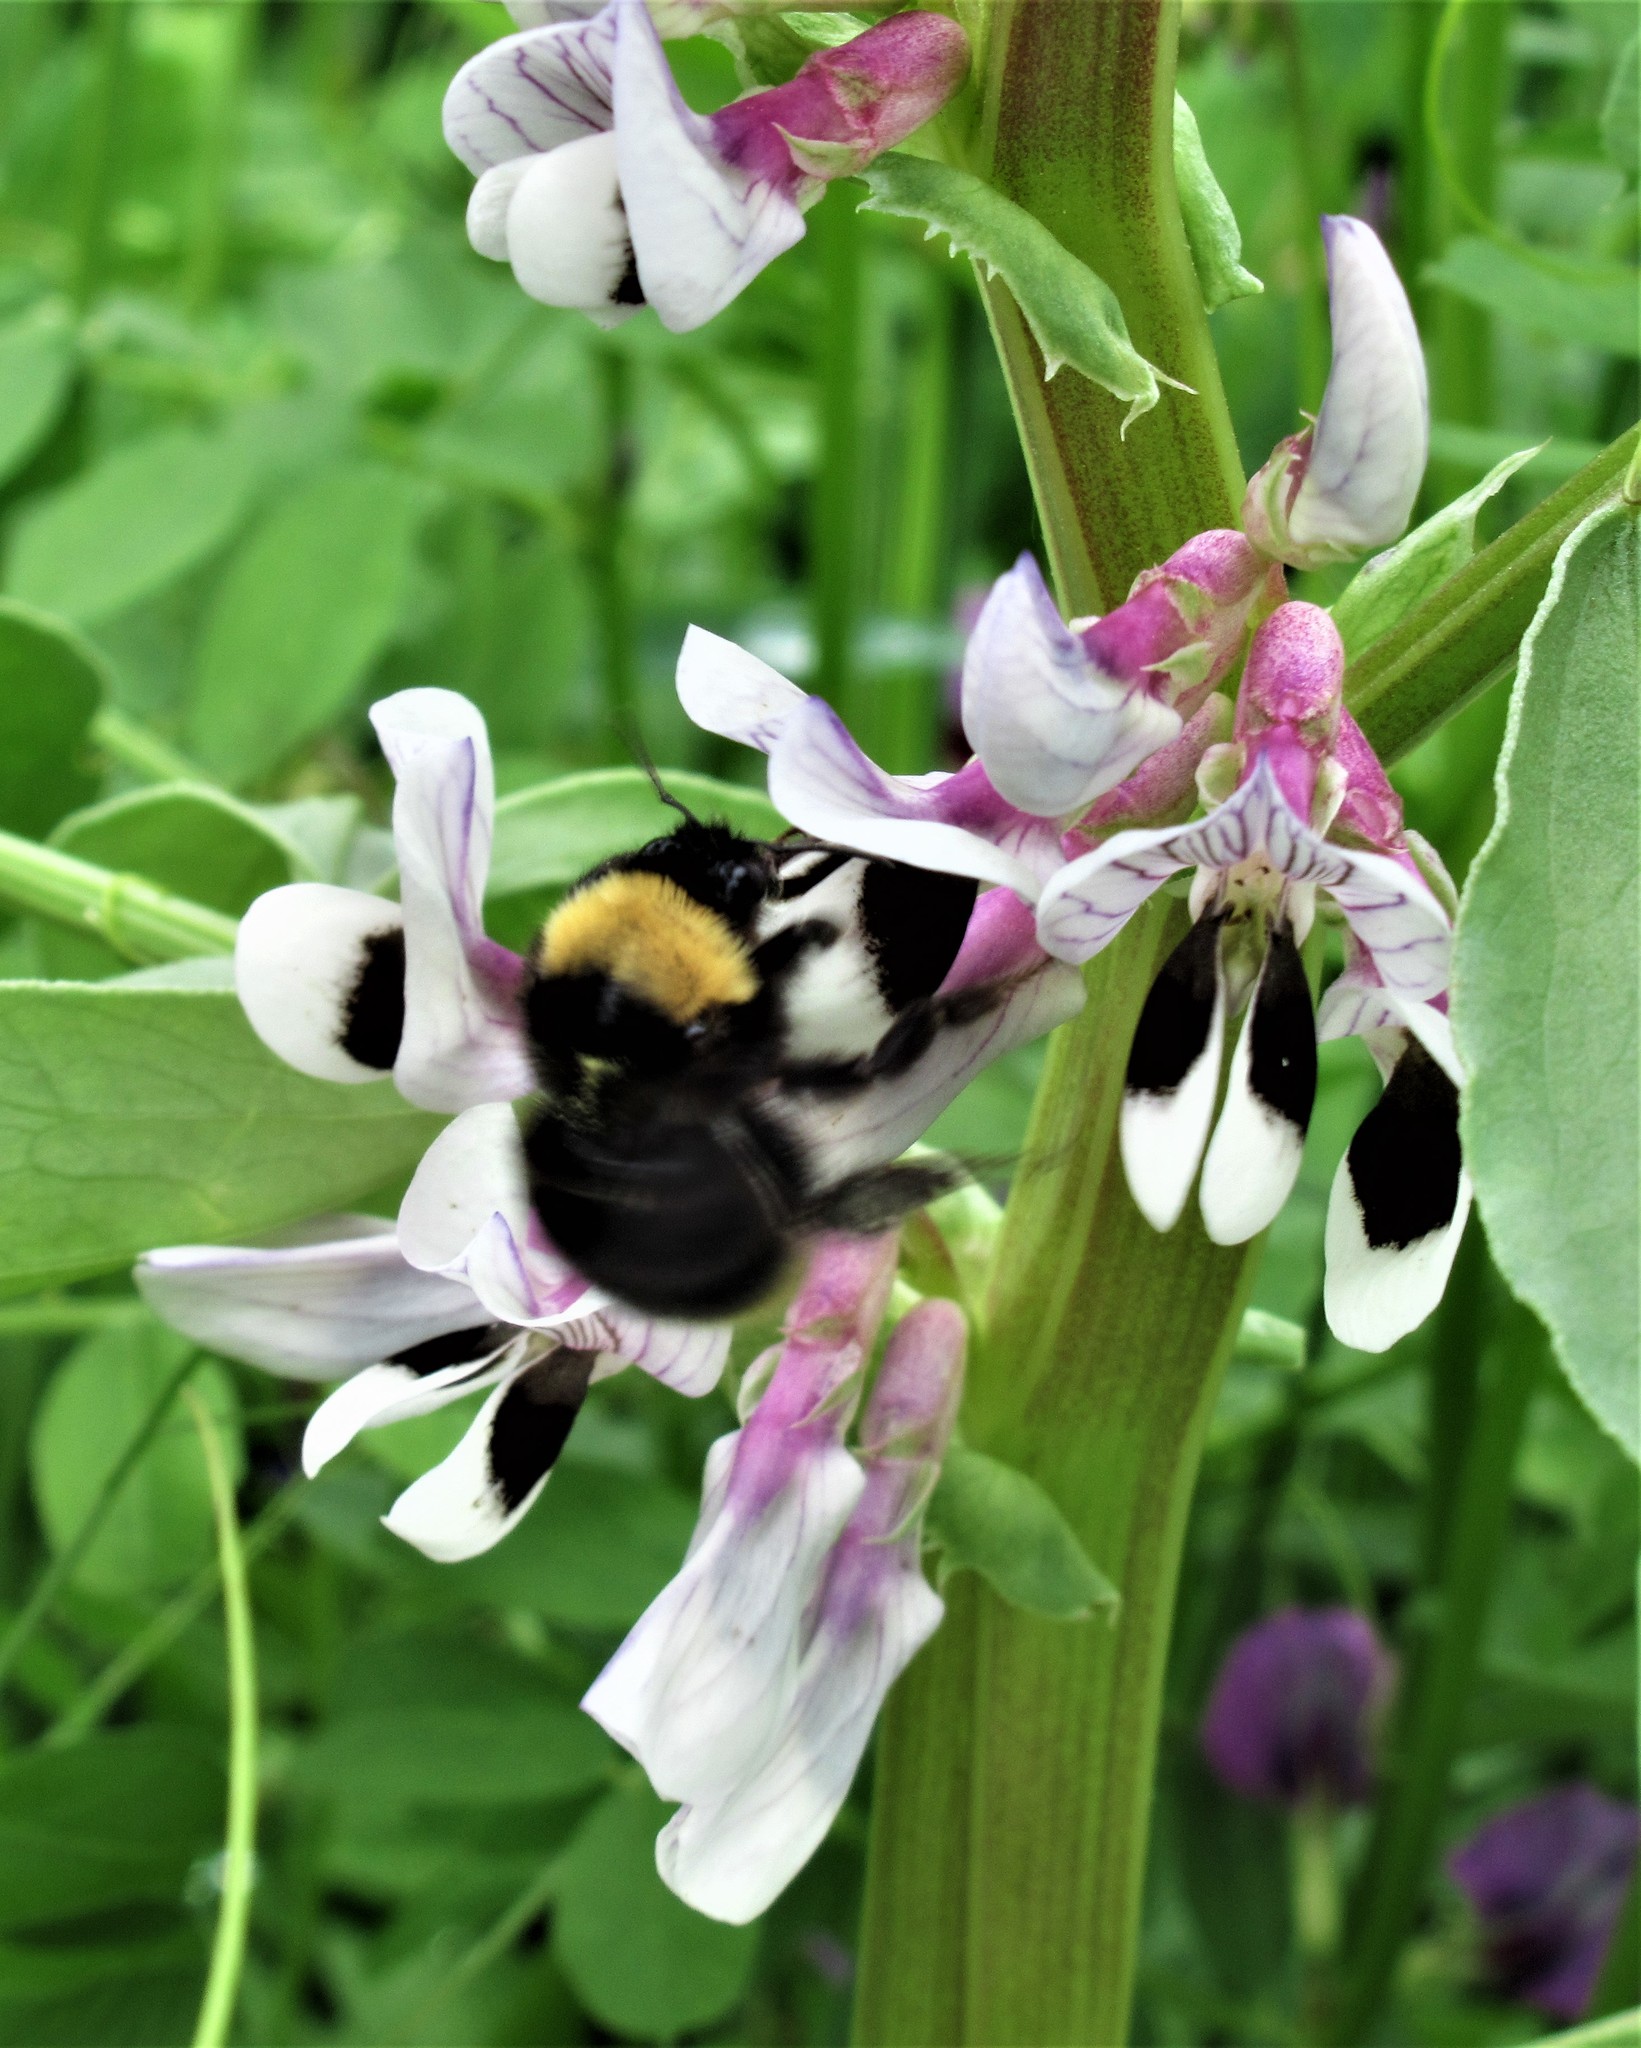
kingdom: Animalia
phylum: Arthropoda
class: Insecta
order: Hymenoptera
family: Apidae
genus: Bombus
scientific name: Bombus californicus
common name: California bumble bee
